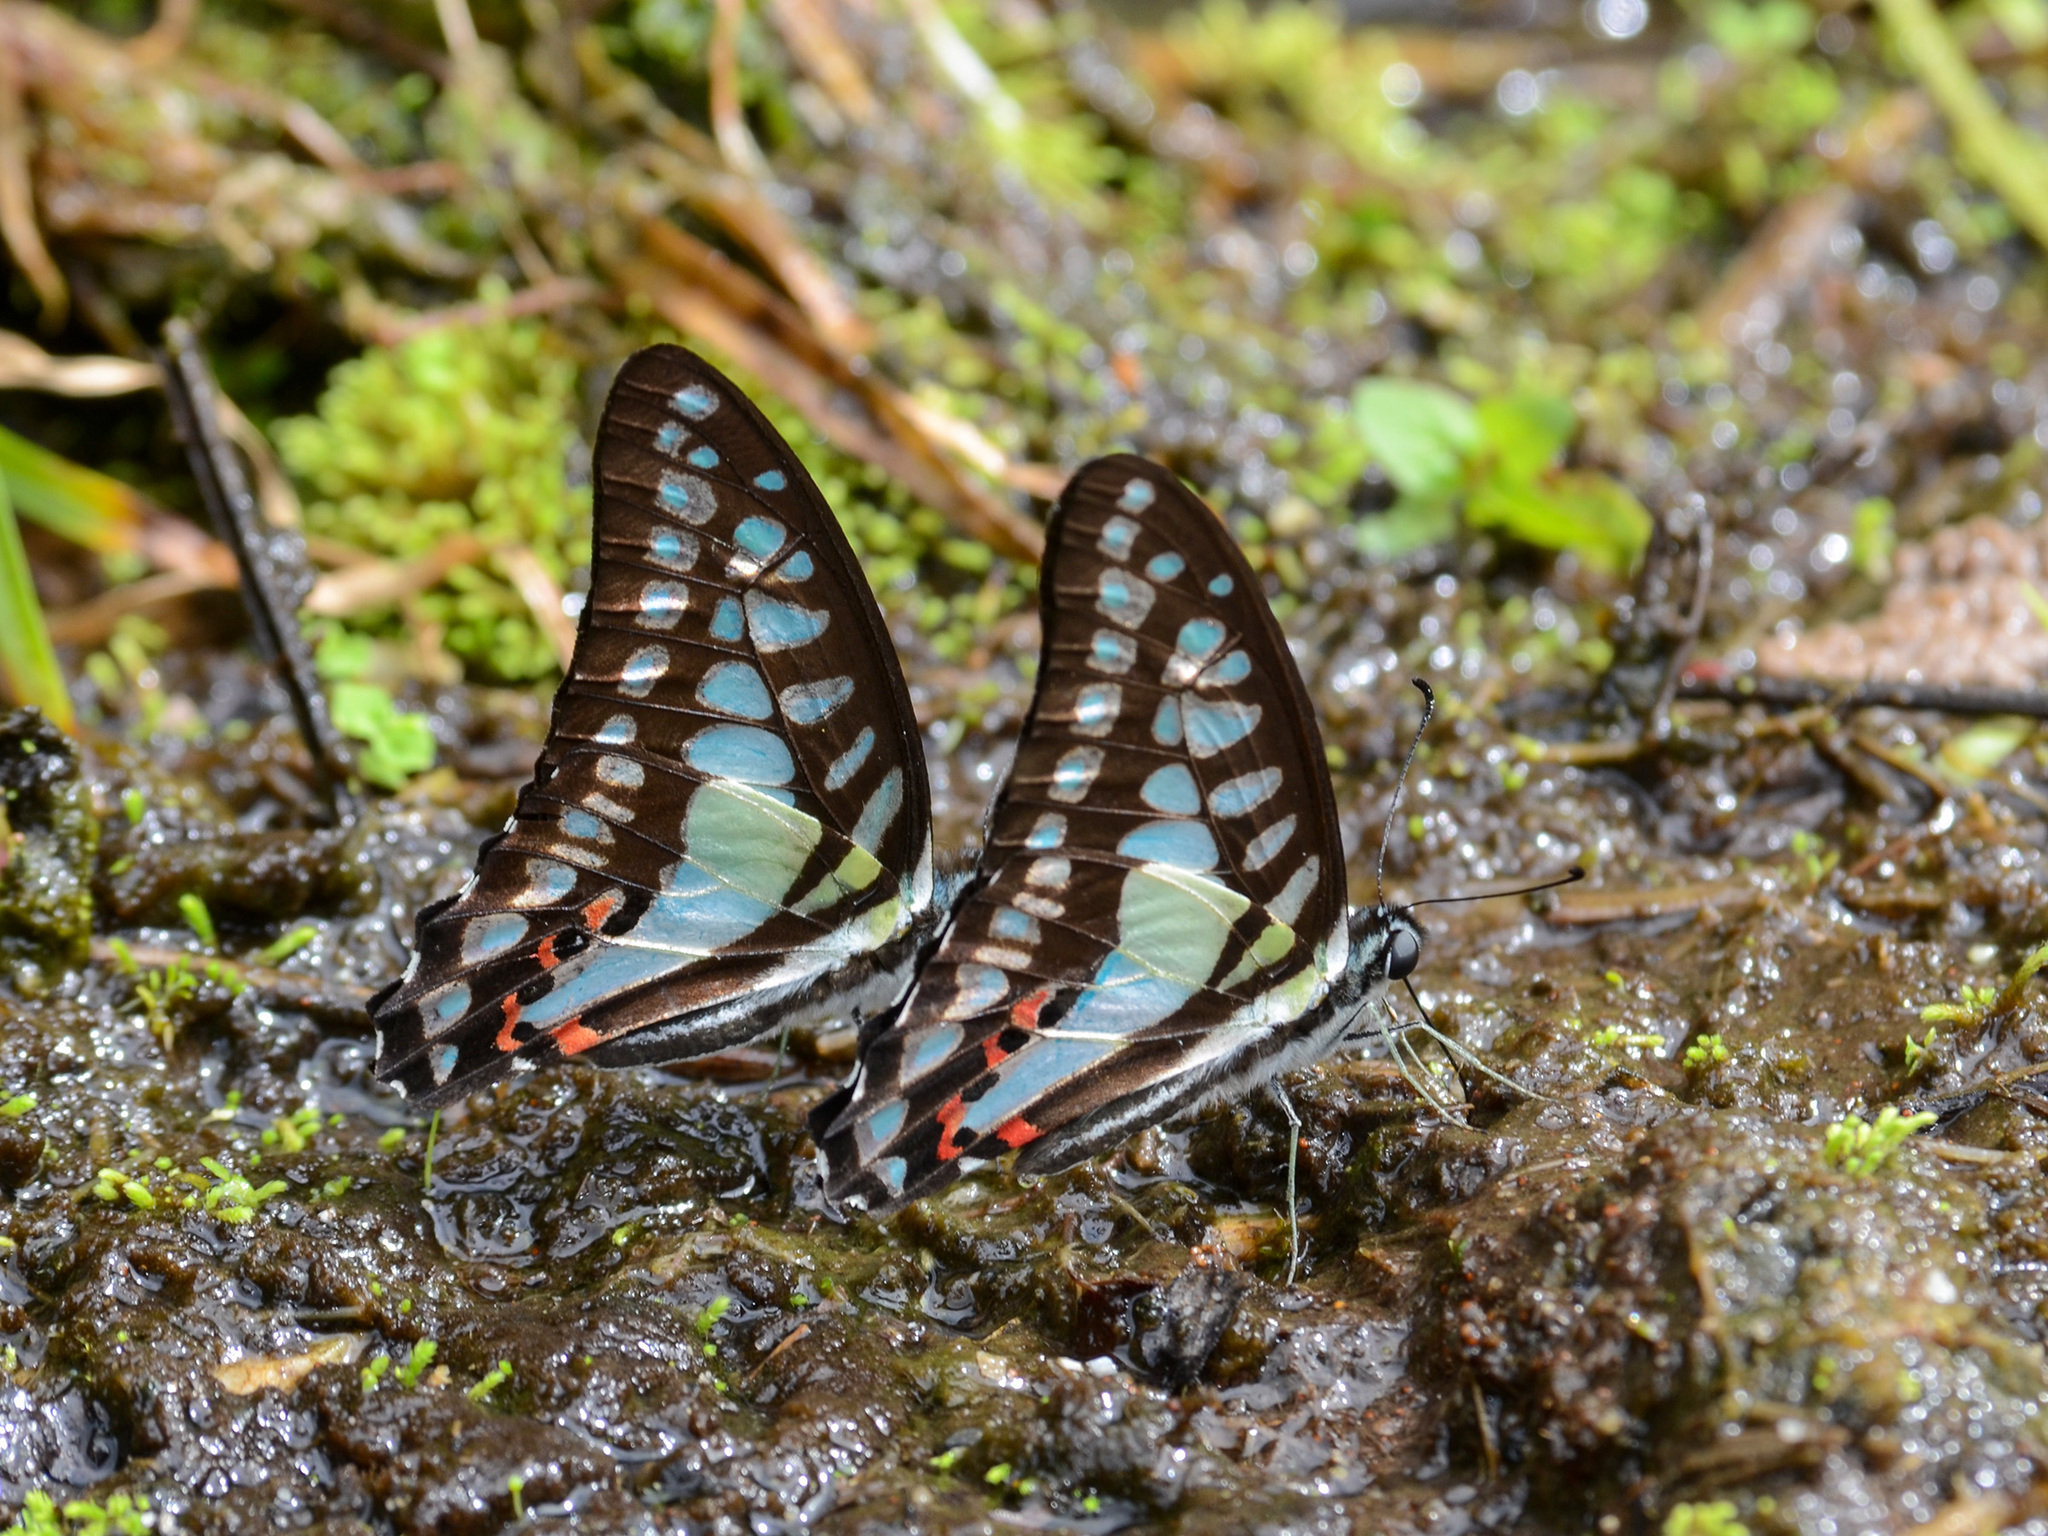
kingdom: Animalia
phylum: Arthropoda
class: Insecta
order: Lepidoptera
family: Papilionidae
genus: Graphium
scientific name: Graphium evemon
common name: Lesser jay
